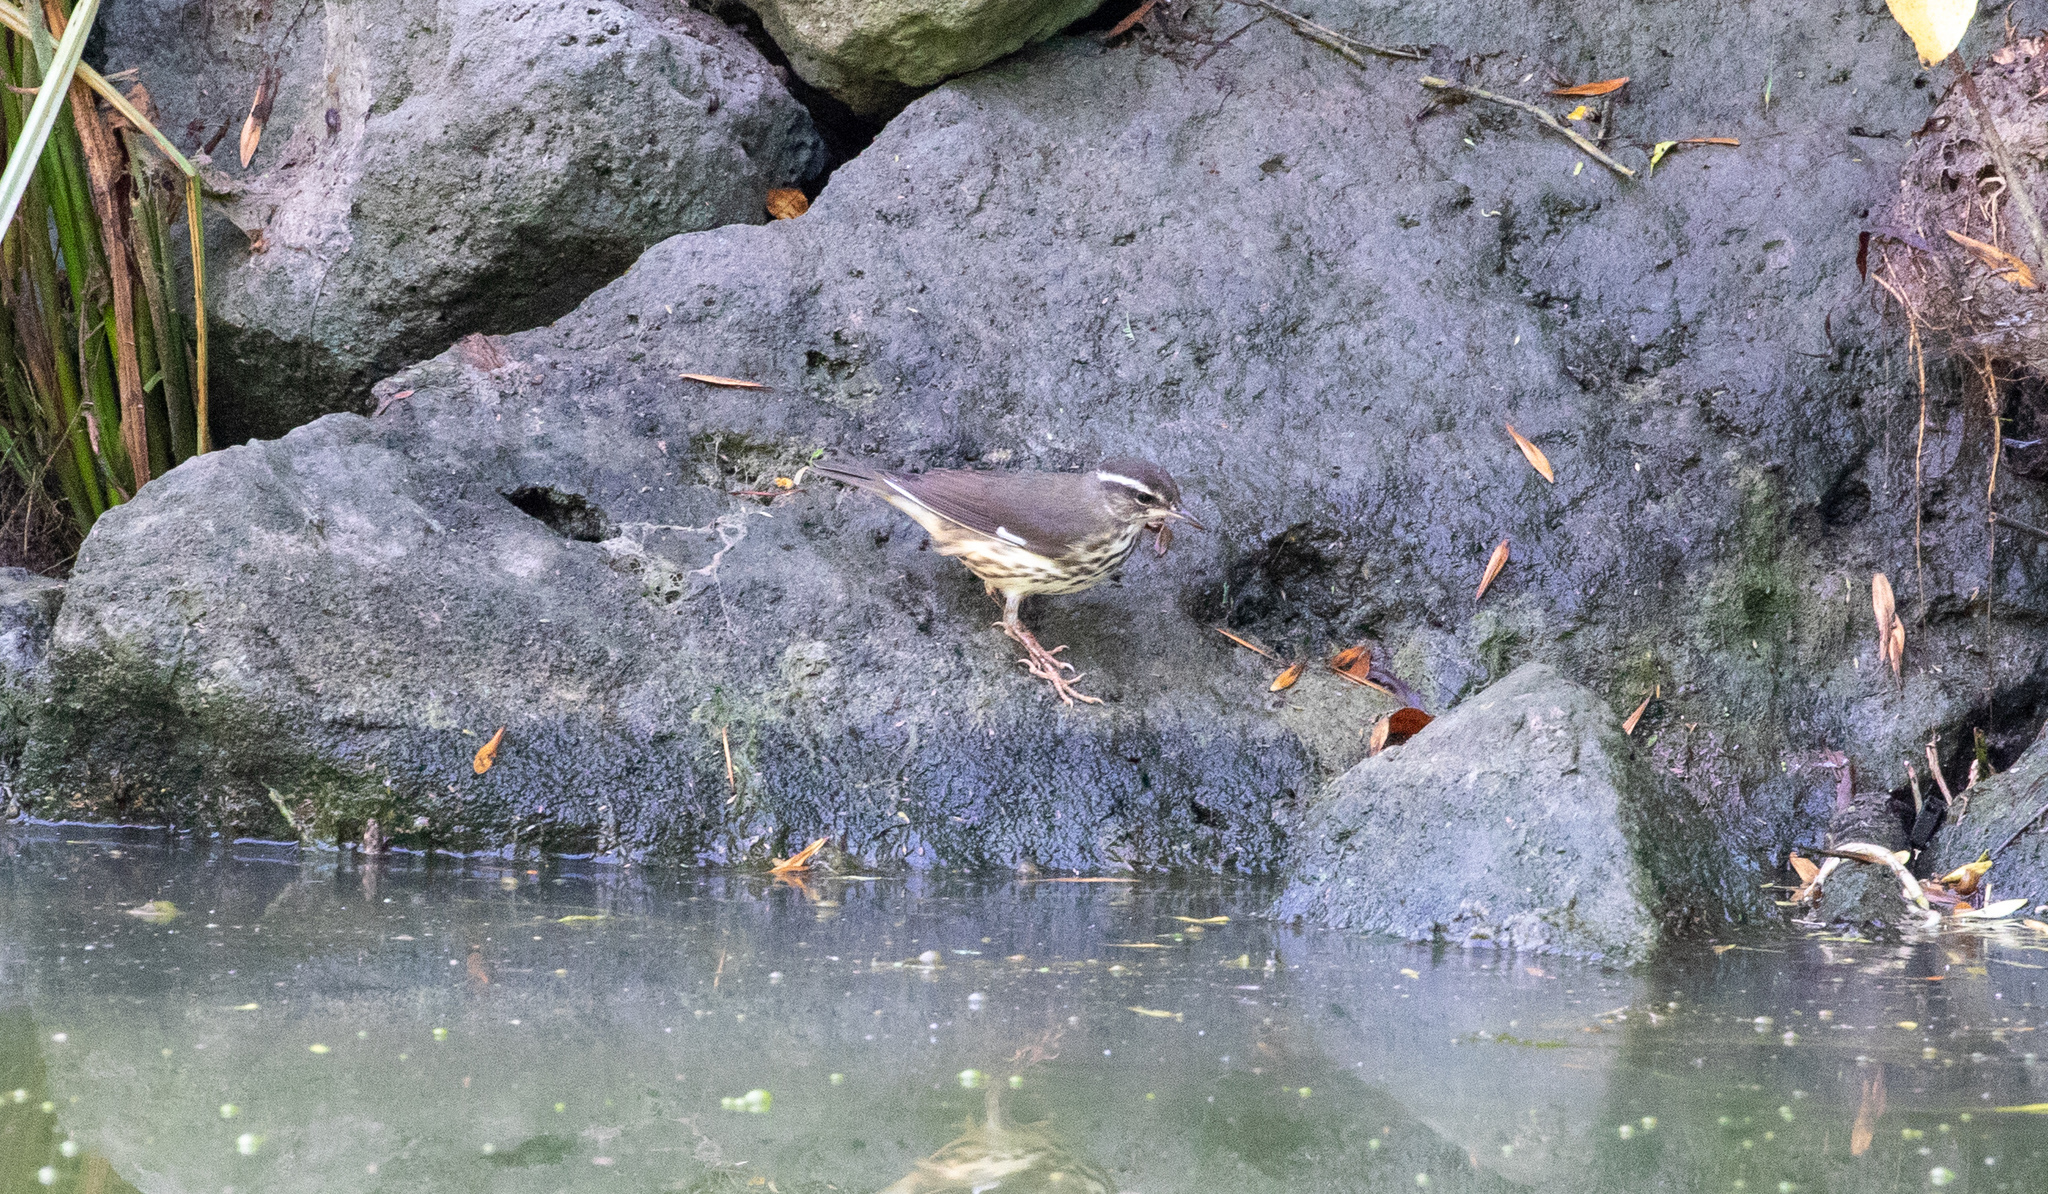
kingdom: Animalia
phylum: Chordata
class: Aves
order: Passeriformes
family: Parulidae
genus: Parkesia
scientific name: Parkesia motacilla
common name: Louisiana waterthrush
